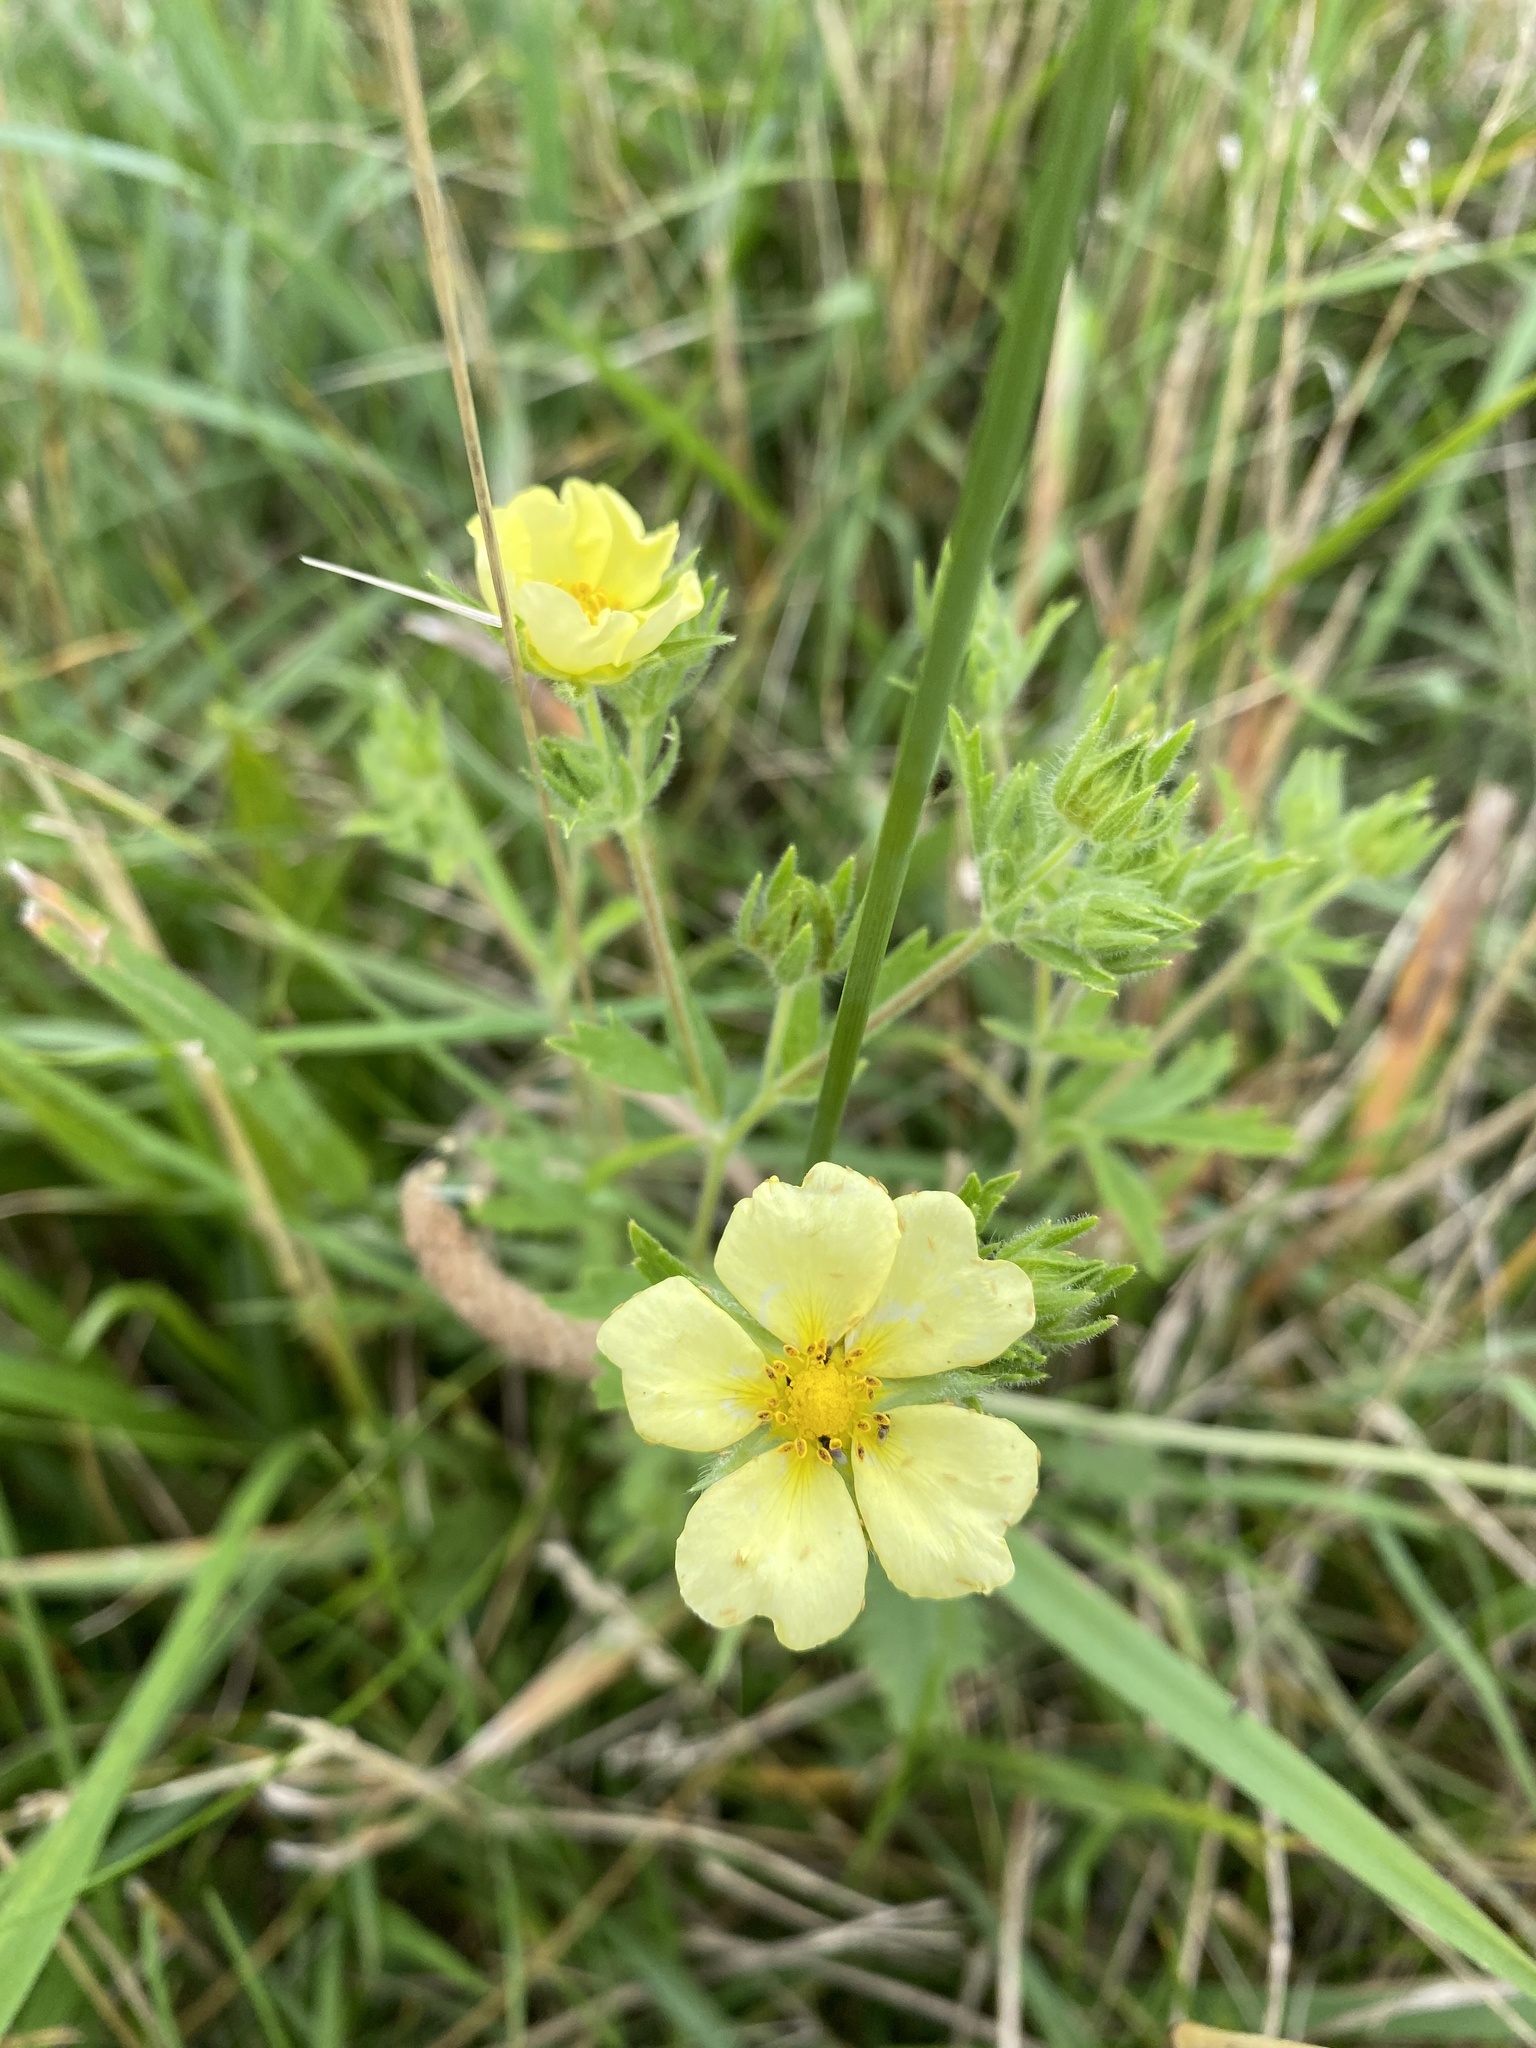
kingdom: Plantae
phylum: Tracheophyta
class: Magnoliopsida
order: Rosales
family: Rosaceae
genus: Potentilla
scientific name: Potentilla recta
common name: Sulphur cinquefoil
